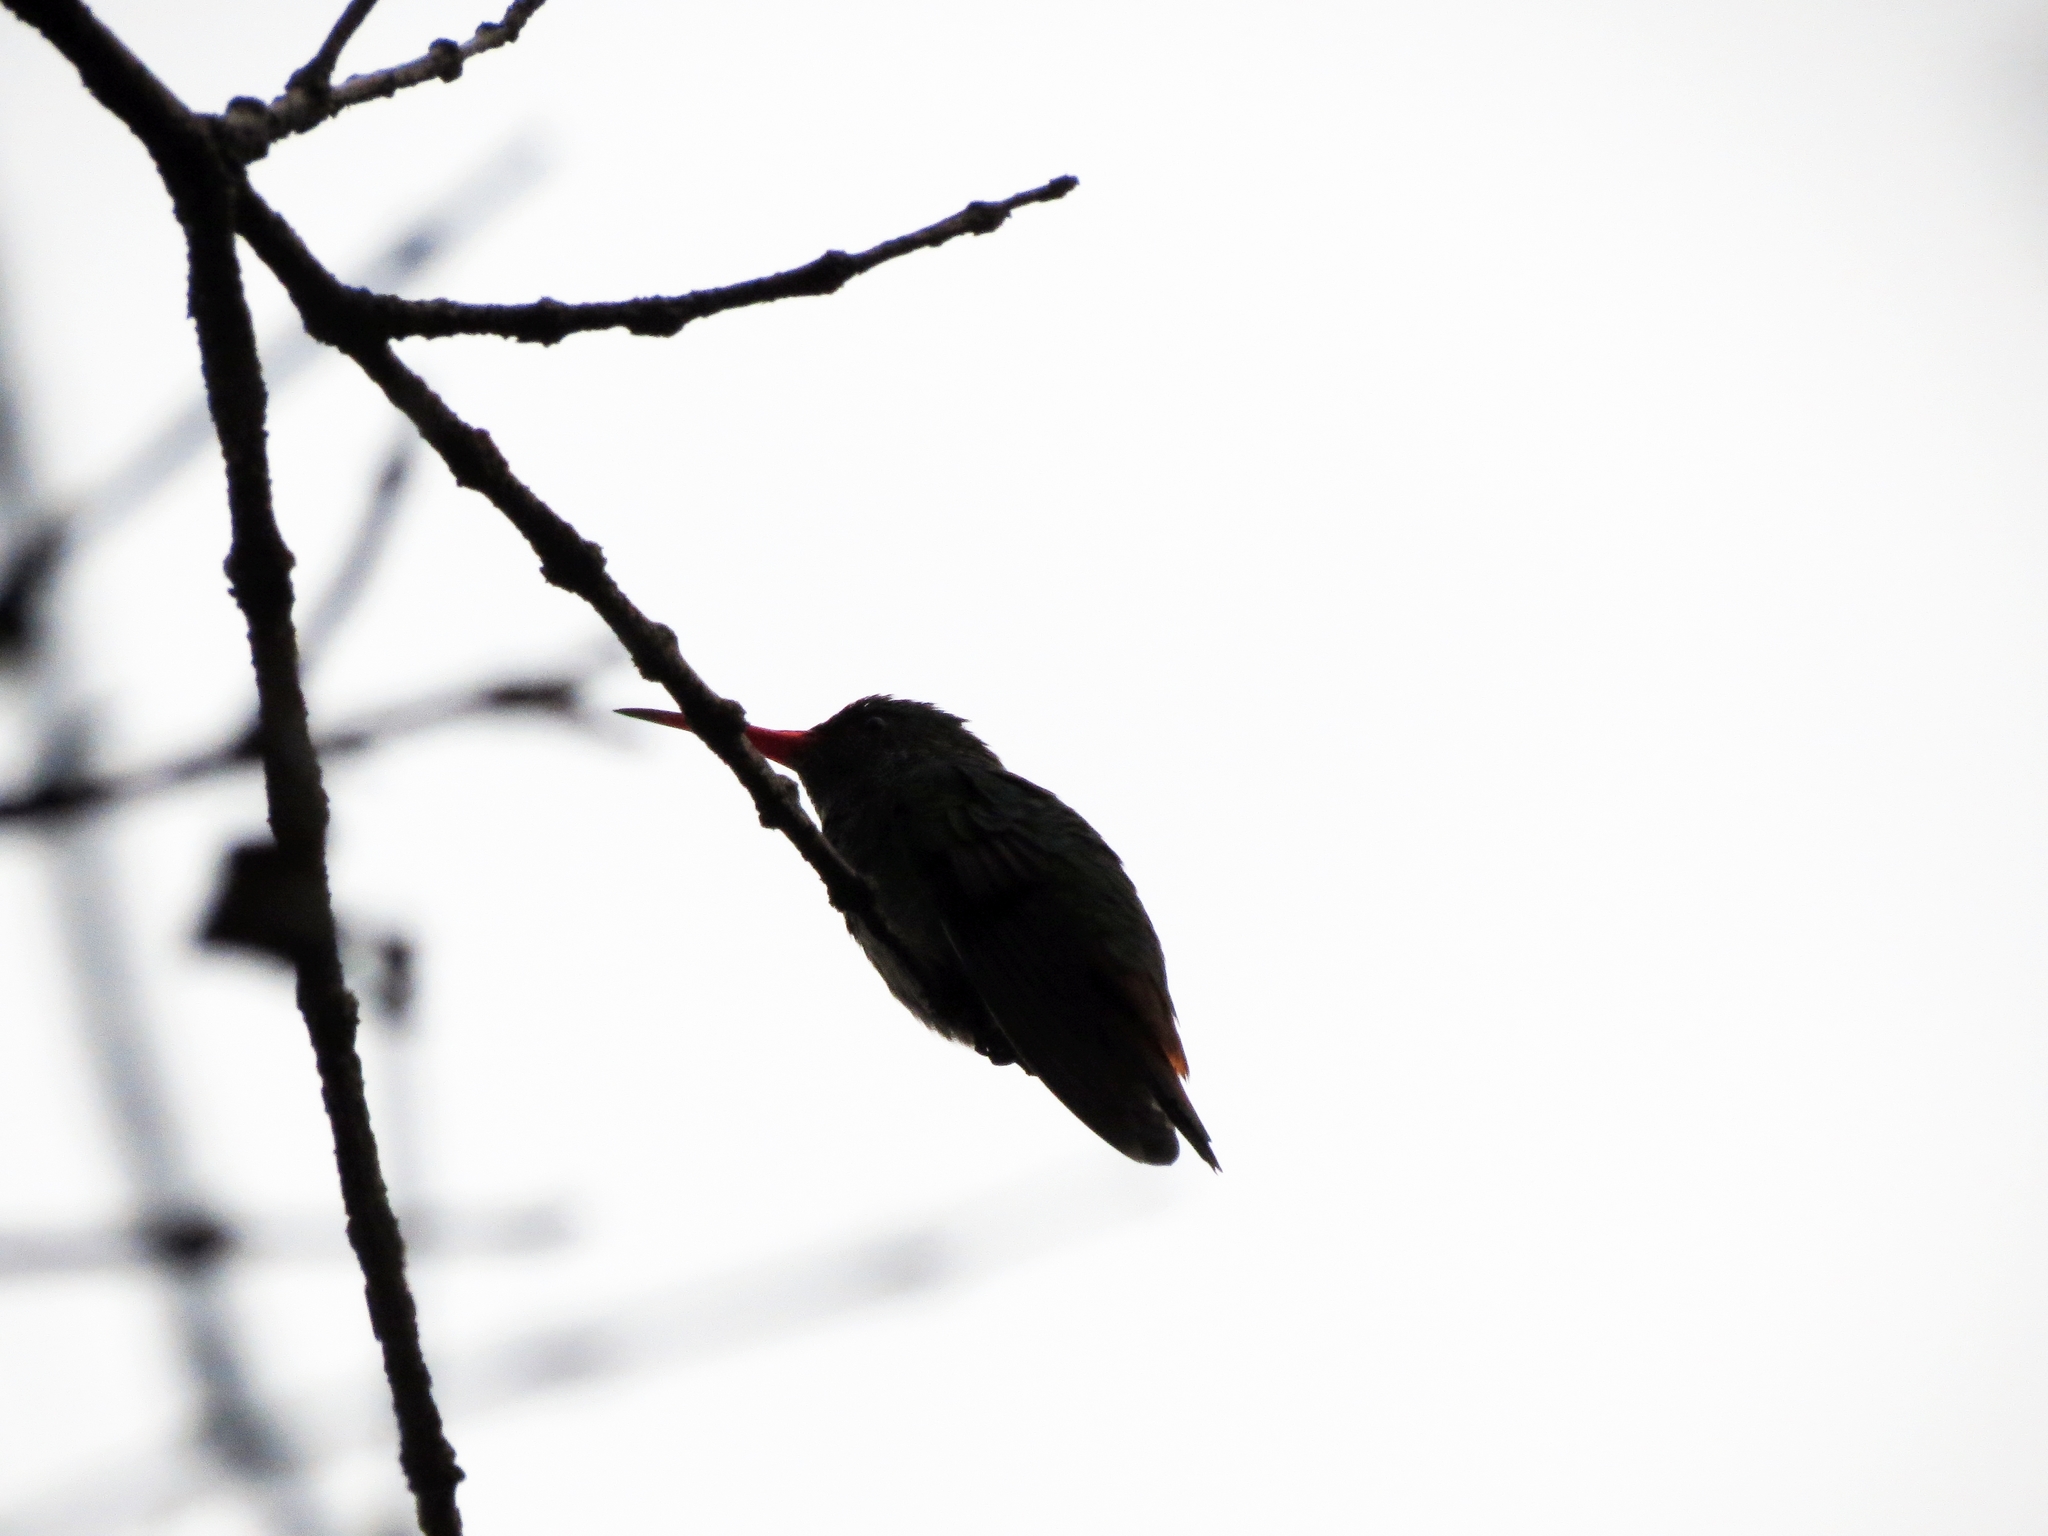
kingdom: Animalia
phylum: Chordata
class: Aves
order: Apodiformes
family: Trochilidae
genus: Amazilia
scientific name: Amazilia tzacatl
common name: Rufous-tailed hummingbird
